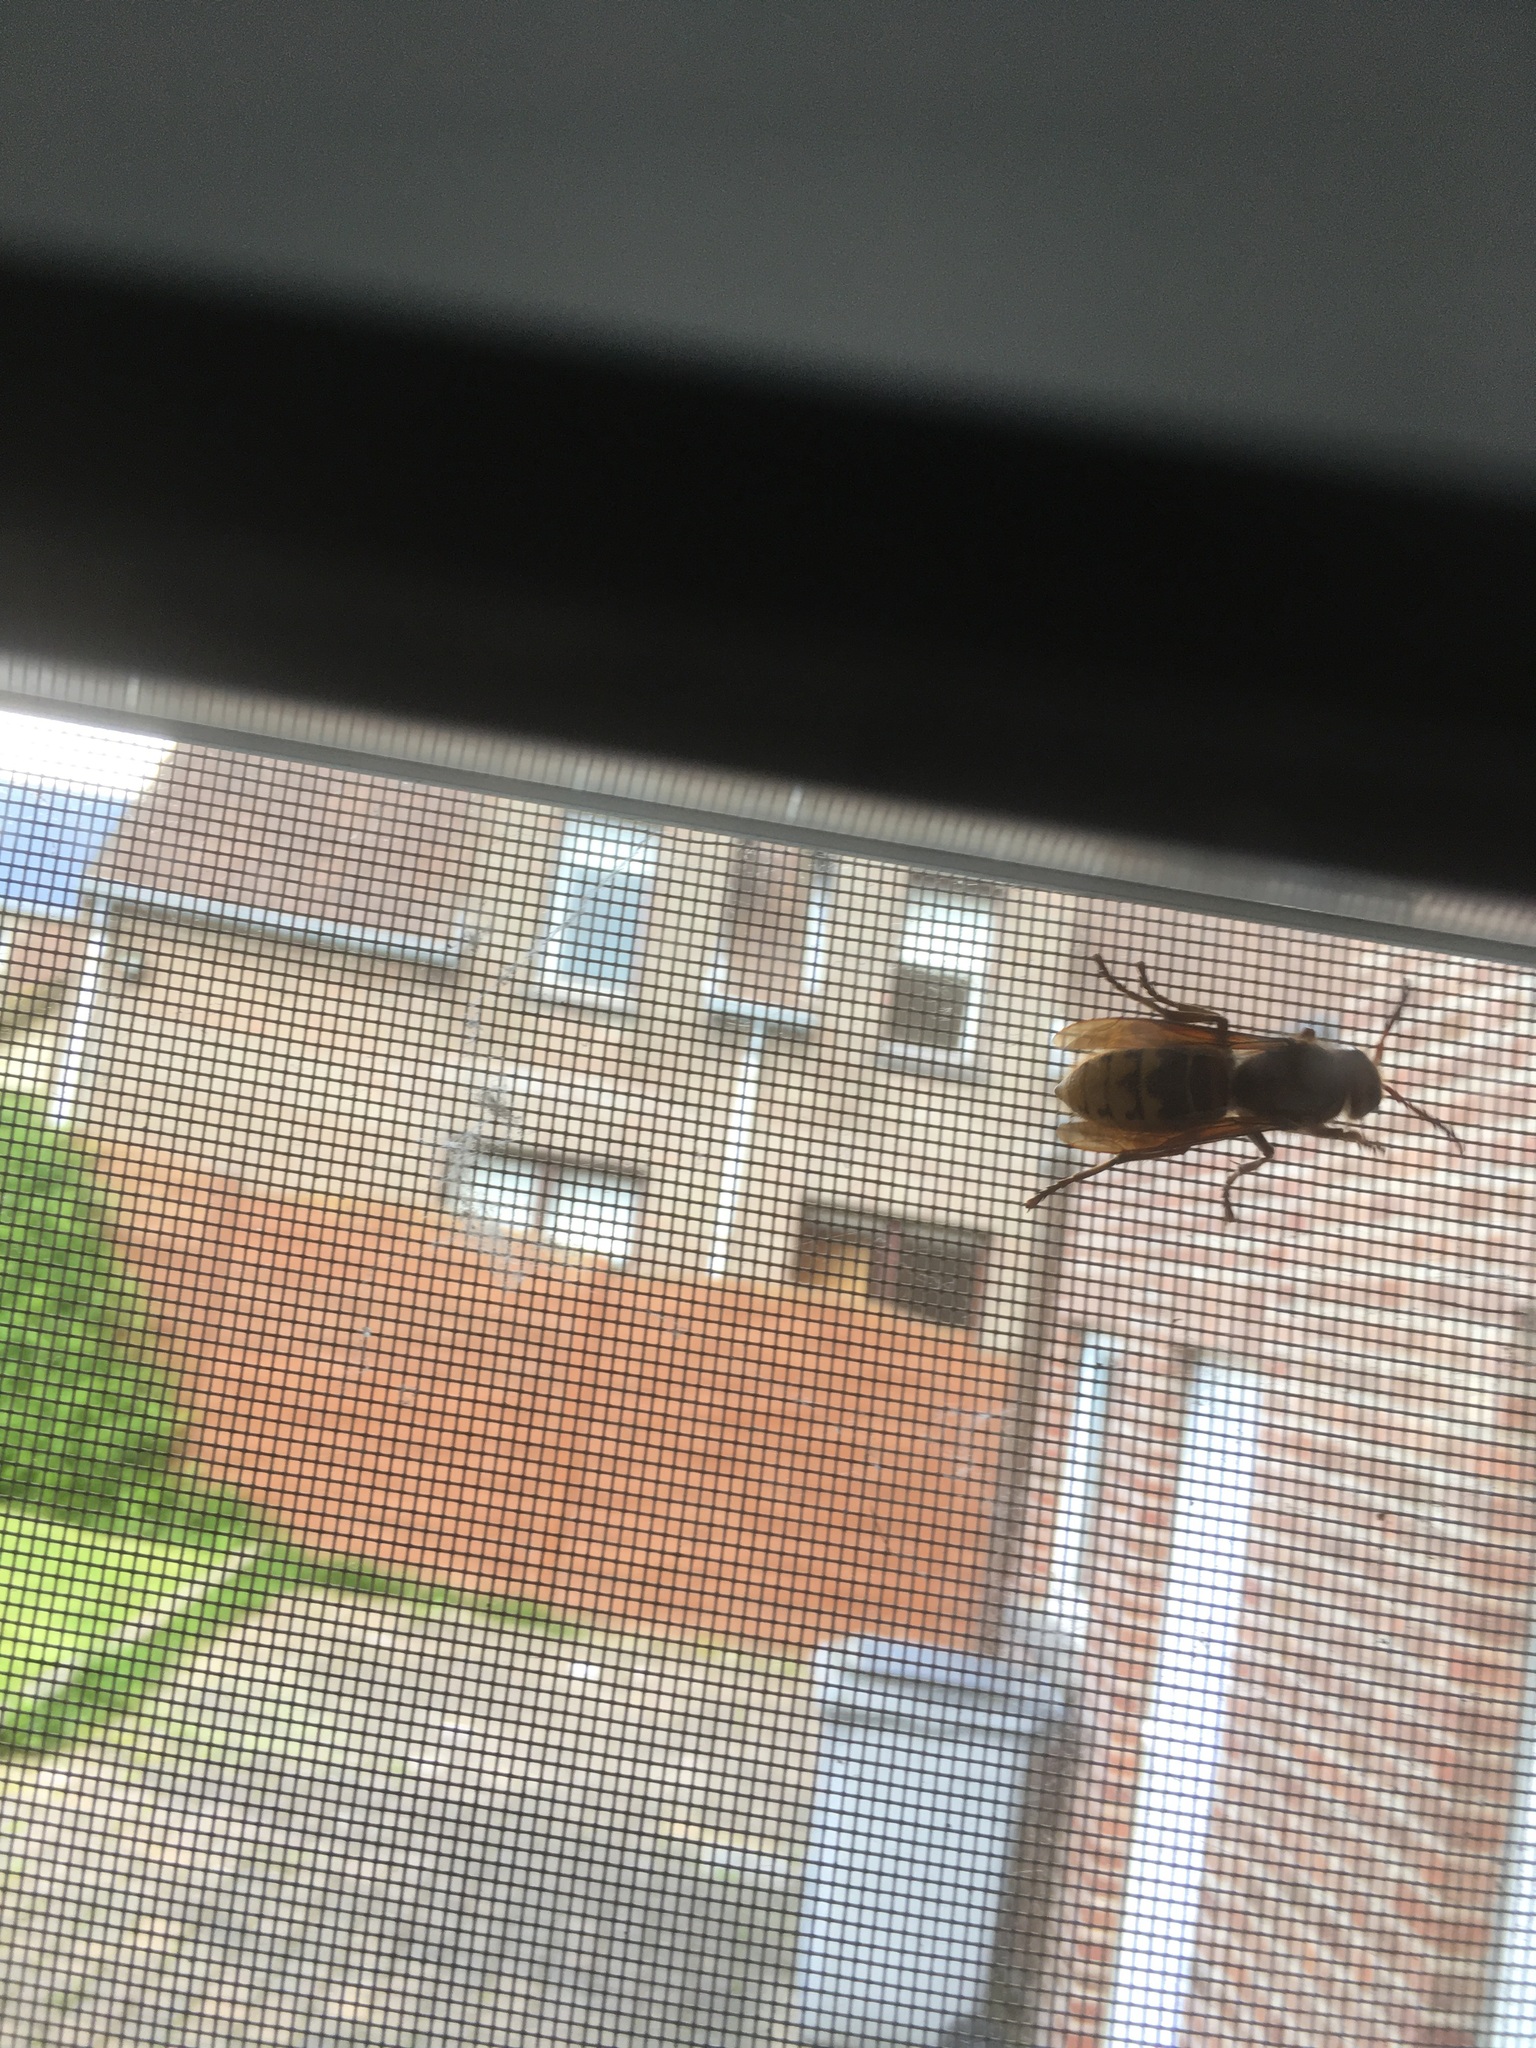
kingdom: Animalia
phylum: Arthropoda
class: Insecta
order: Hymenoptera
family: Vespidae
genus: Vespa
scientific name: Vespa crabro
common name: Hornet
